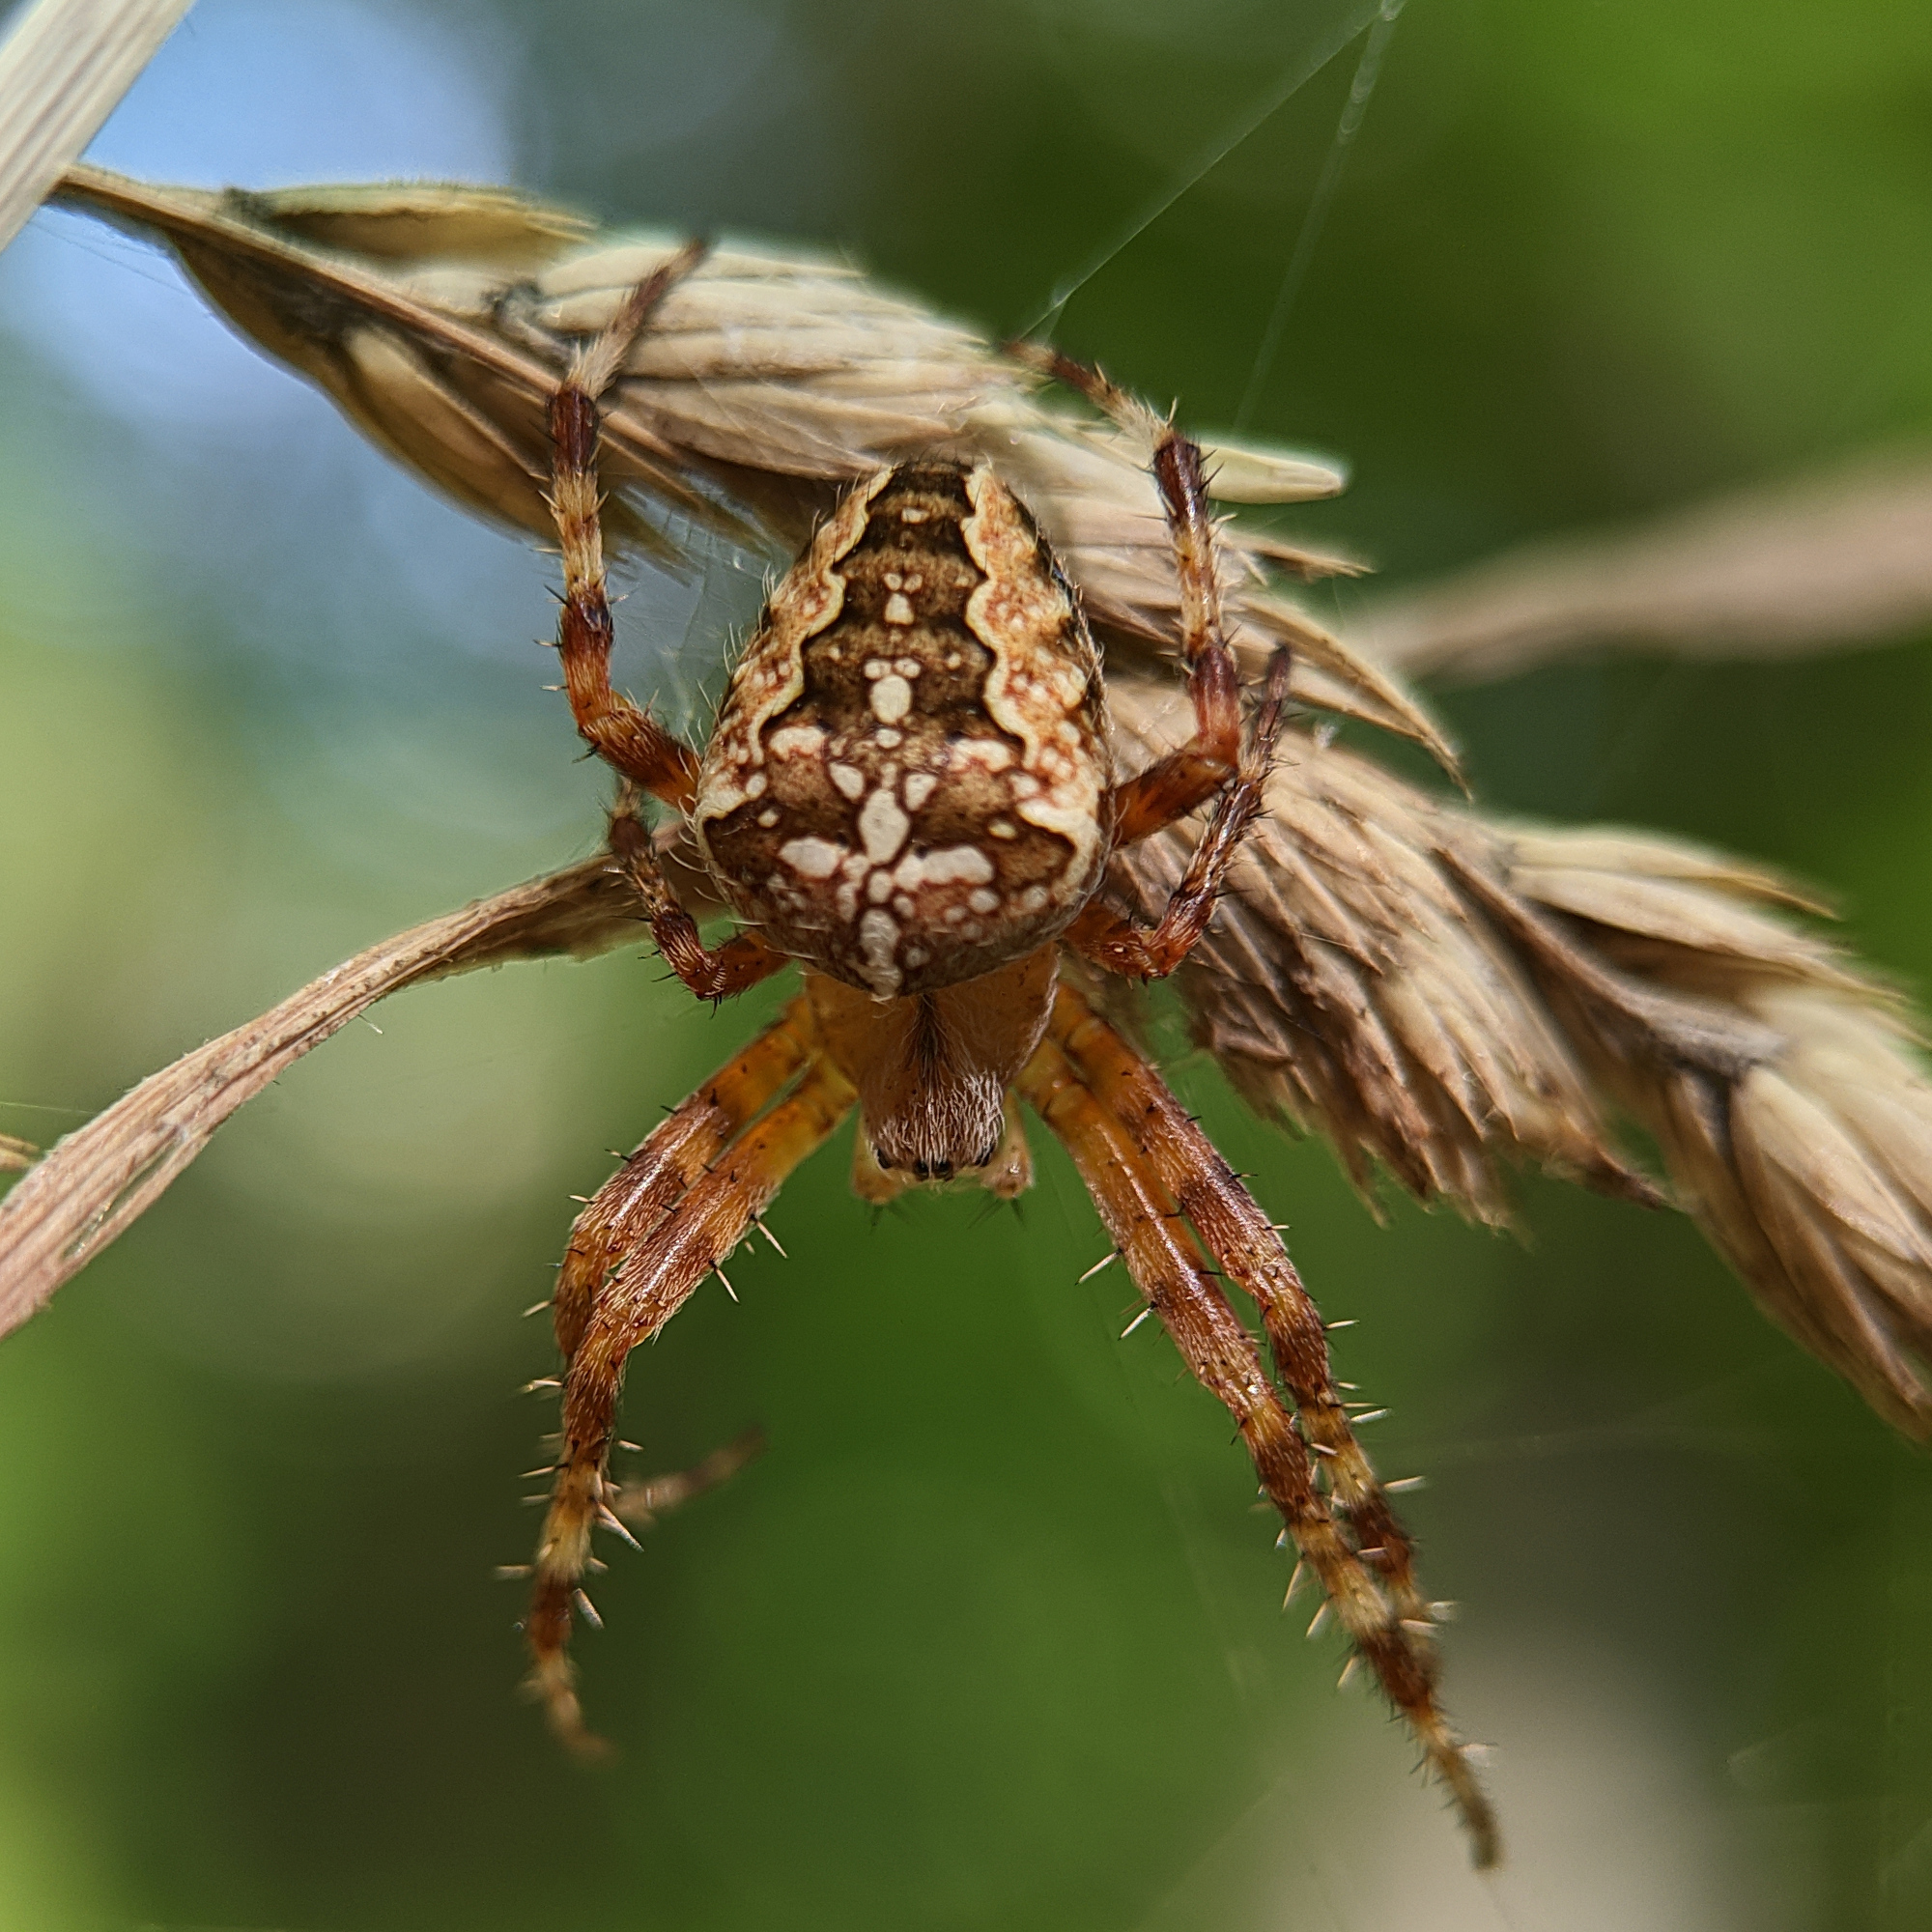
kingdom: Animalia
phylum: Arthropoda
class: Arachnida
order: Araneae
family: Araneidae
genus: Araneus
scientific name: Araneus diadematus
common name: Cross orbweaver
